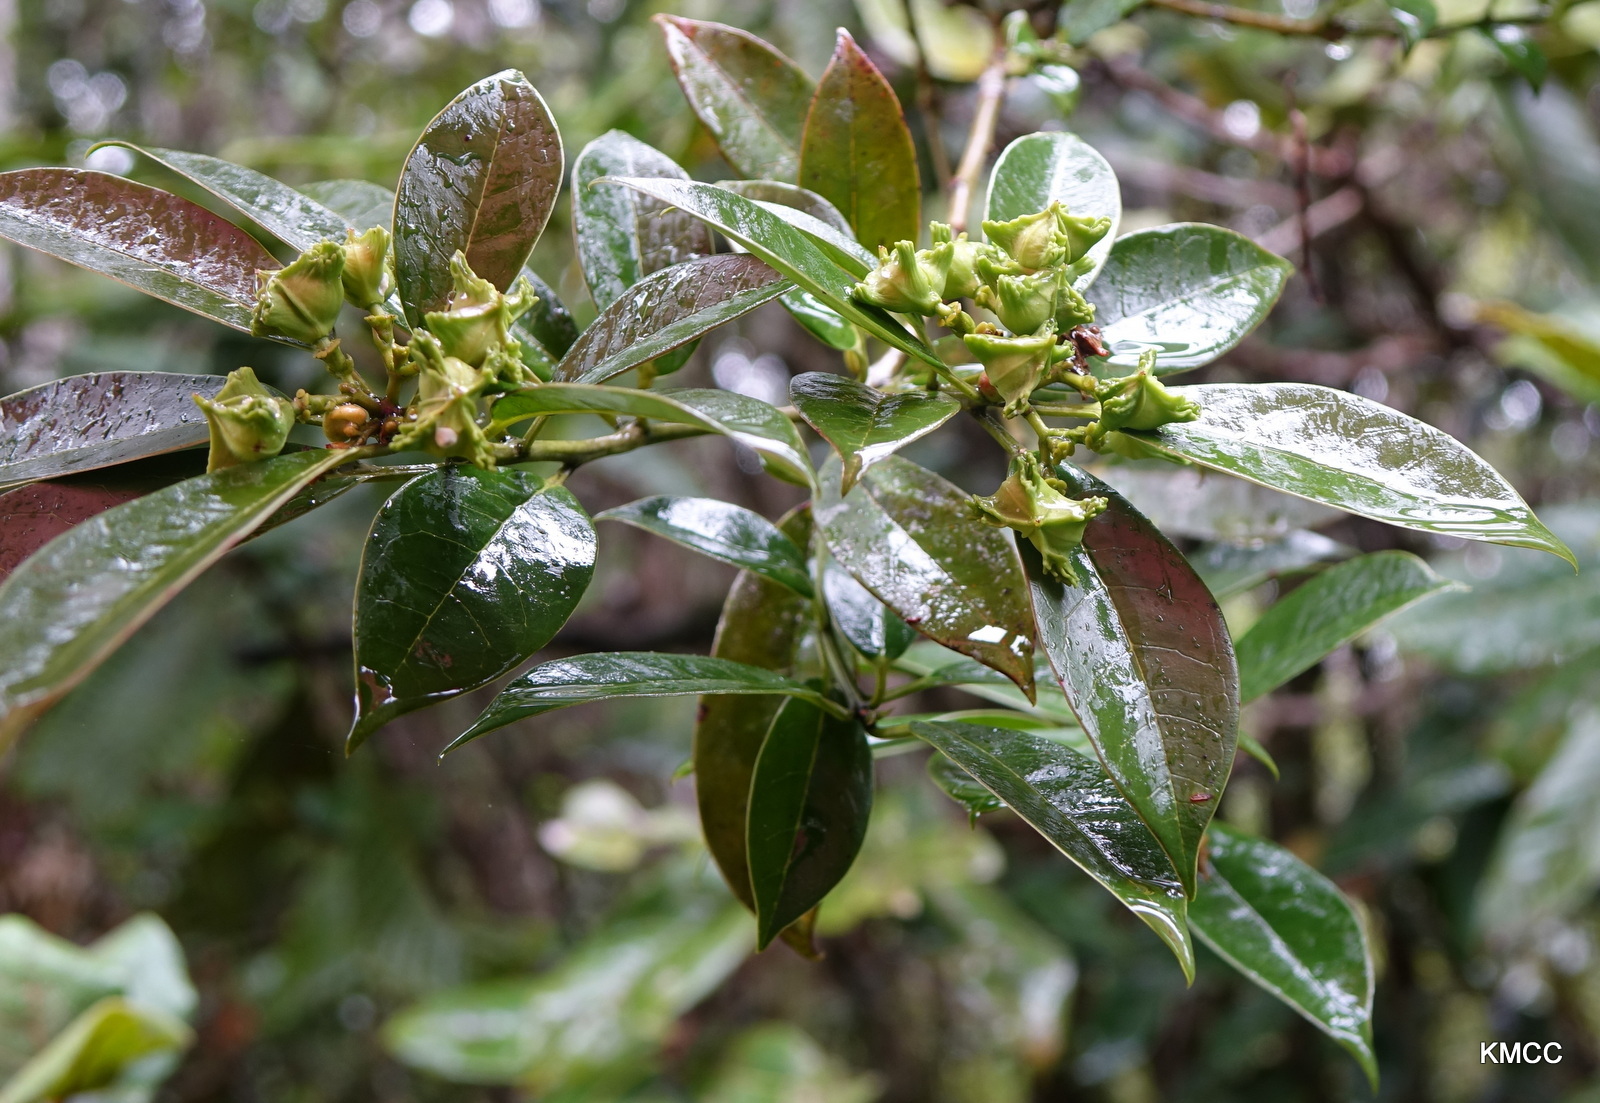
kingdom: Plantae
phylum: Tracheophyta
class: Magnoliopsida
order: Malpighiales
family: Euphorbiaceae
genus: Euphorbia
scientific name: Euphorbia tetraptera
